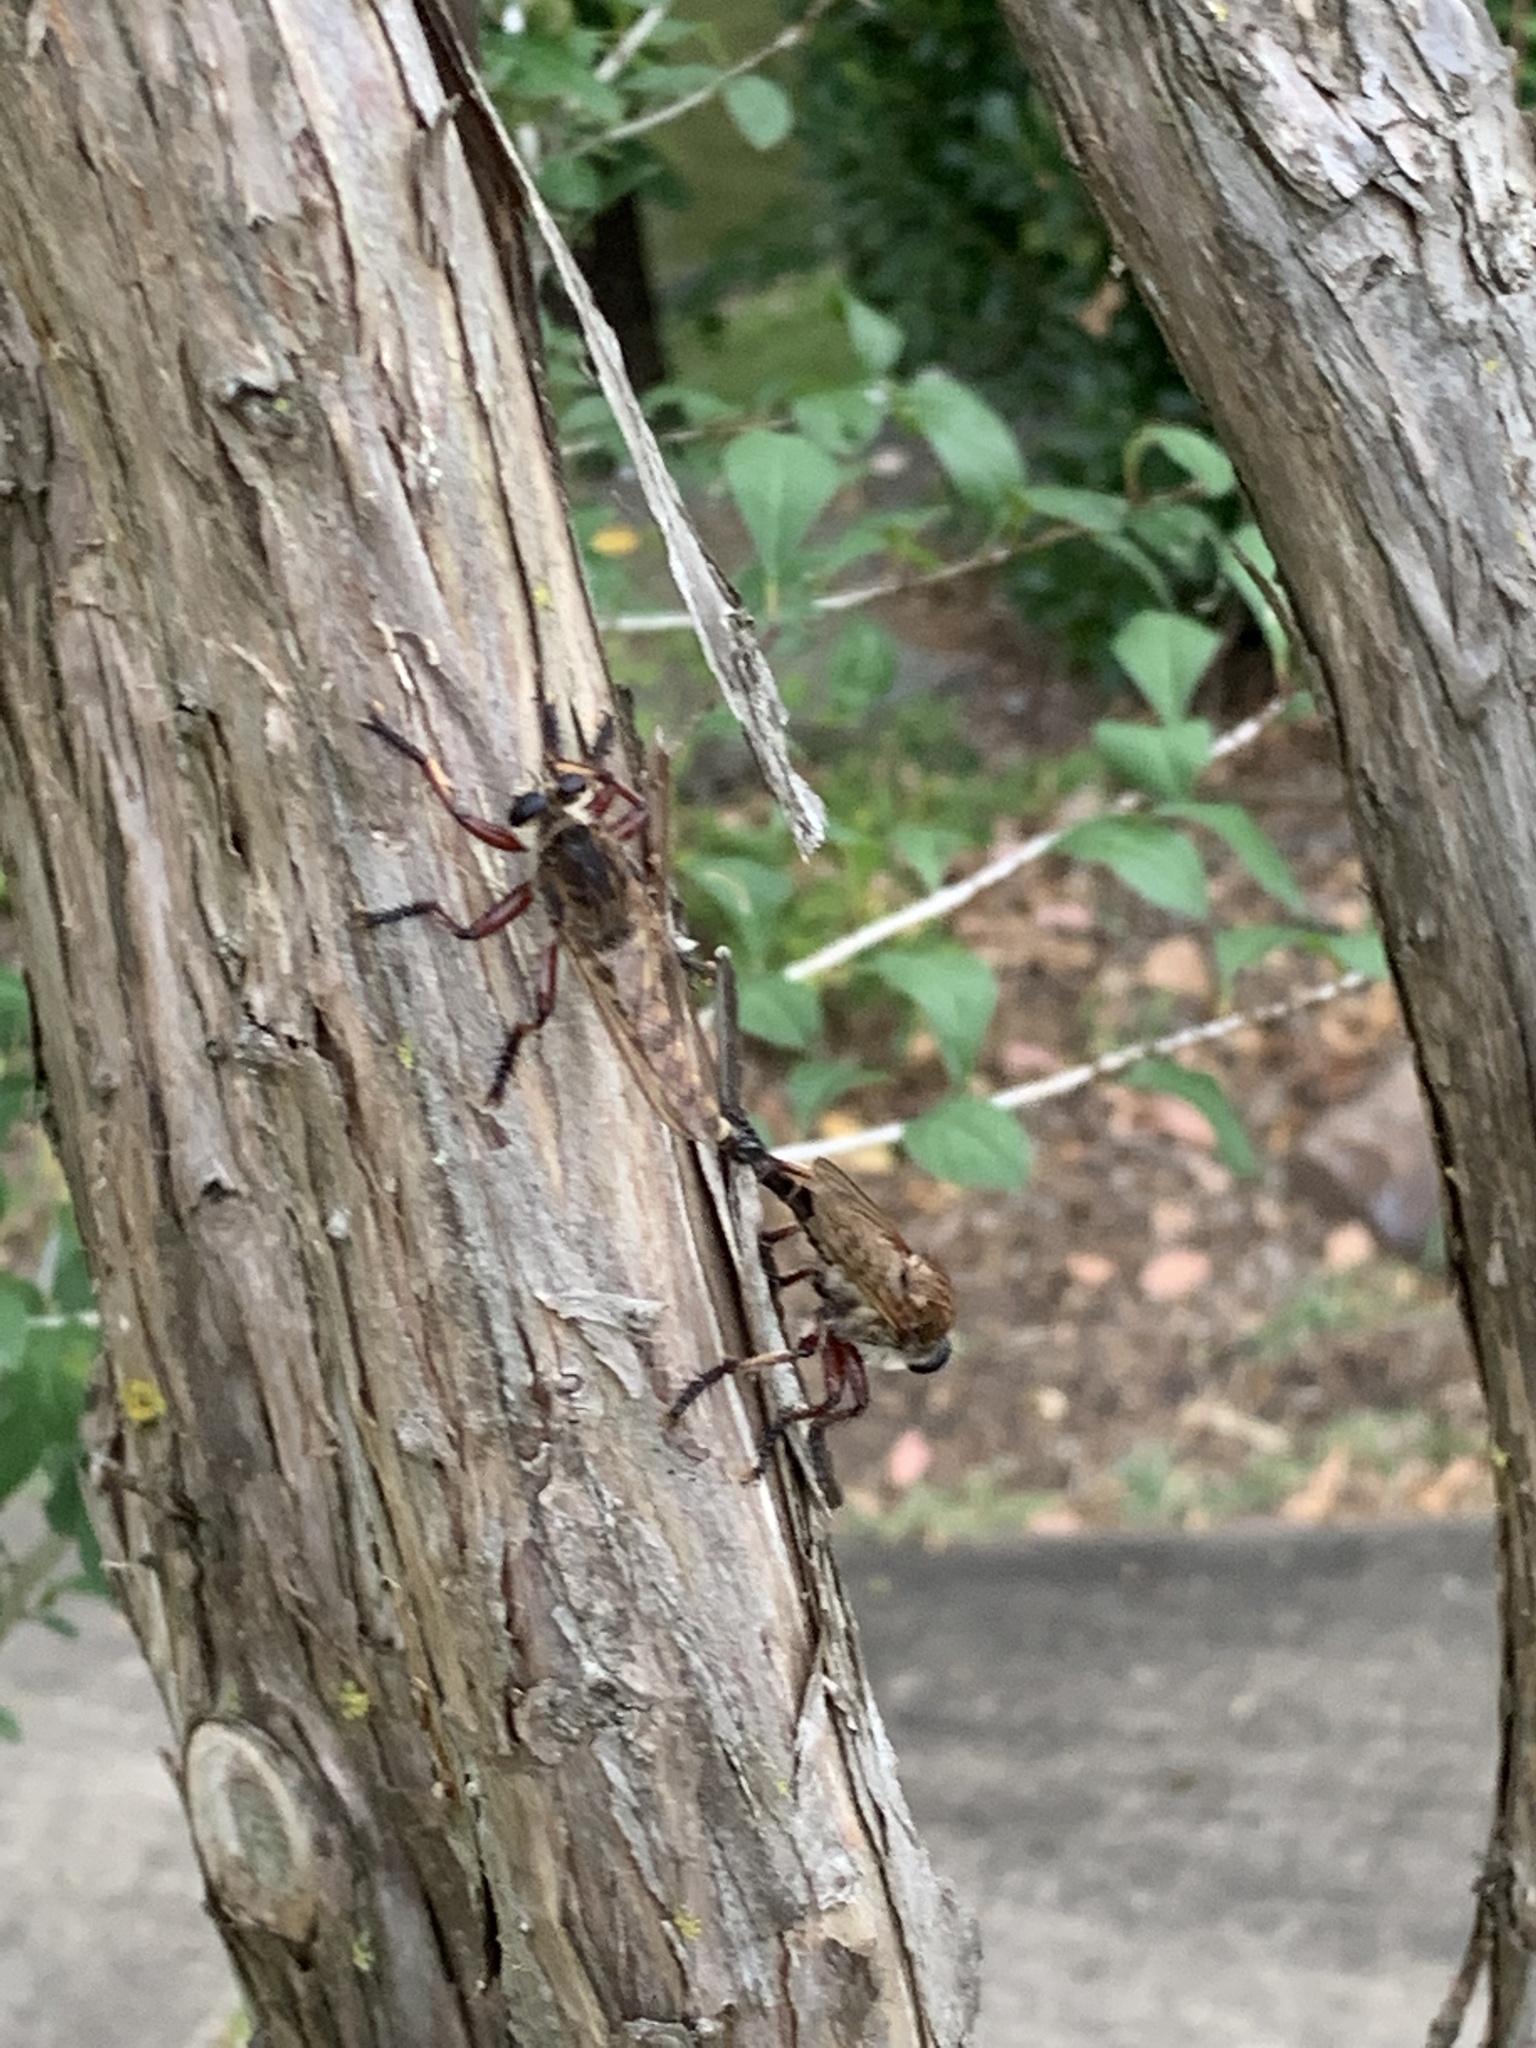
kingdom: Animalia
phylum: Arthropoda
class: Insecta
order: Diptera
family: Asilidae
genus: Promachus
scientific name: Promachus hinei
